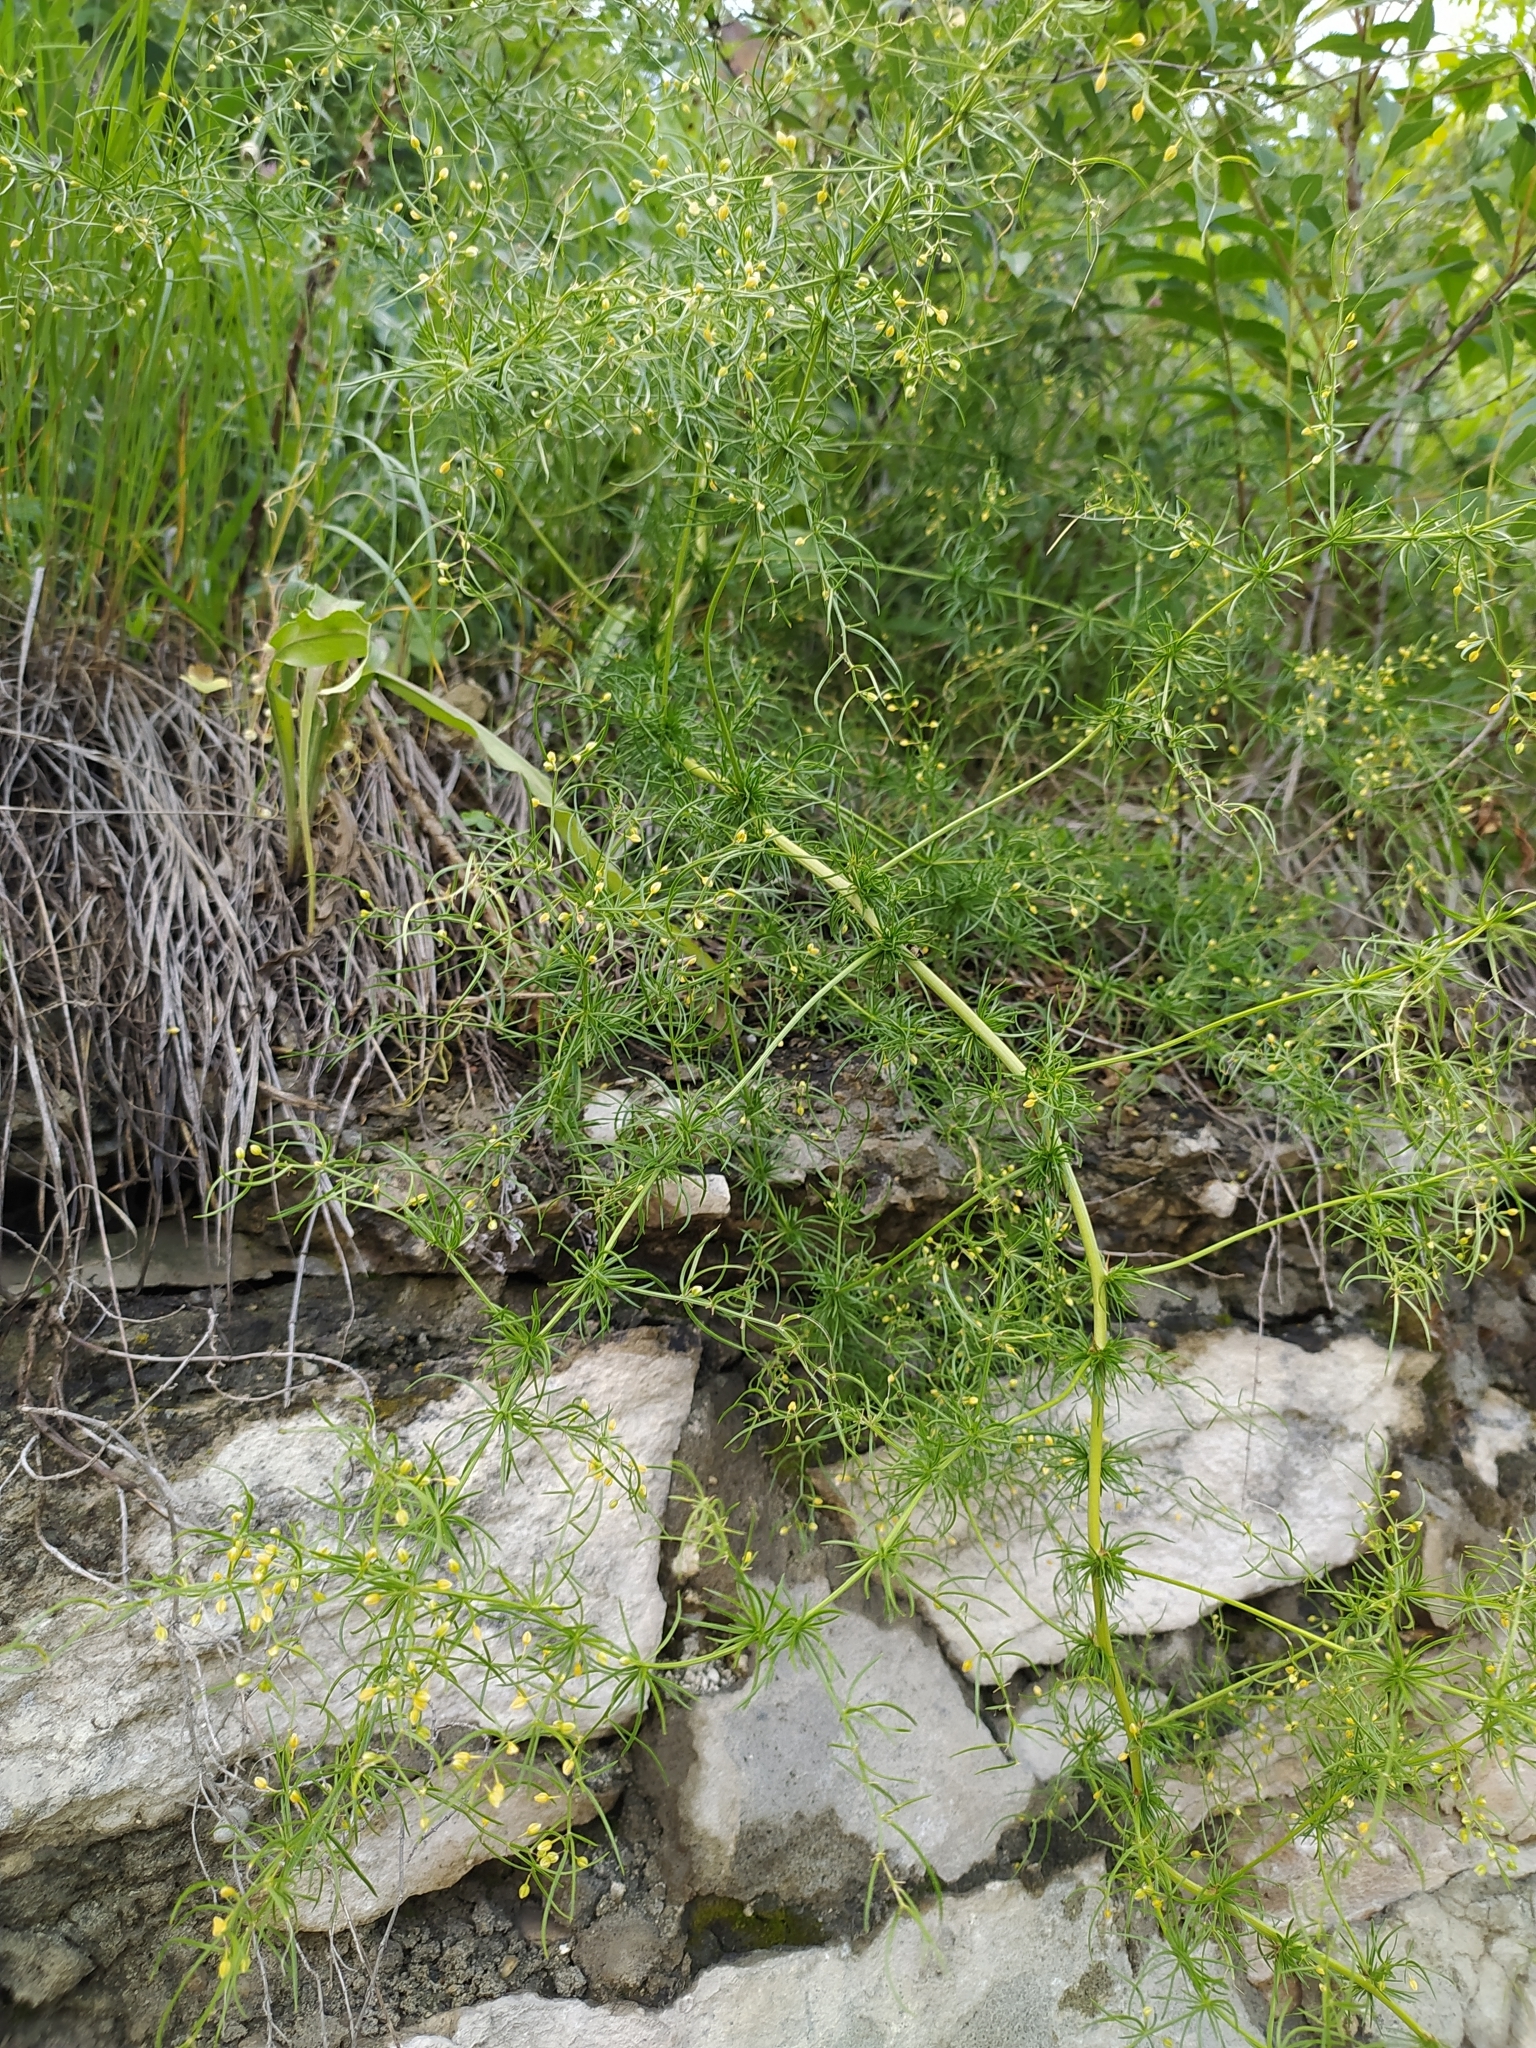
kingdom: Plantae
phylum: Tracheophyta
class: Liliopsida
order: Asparagales
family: Asparagaceae
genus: Asparagus
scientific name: Asparagus verticillatus
